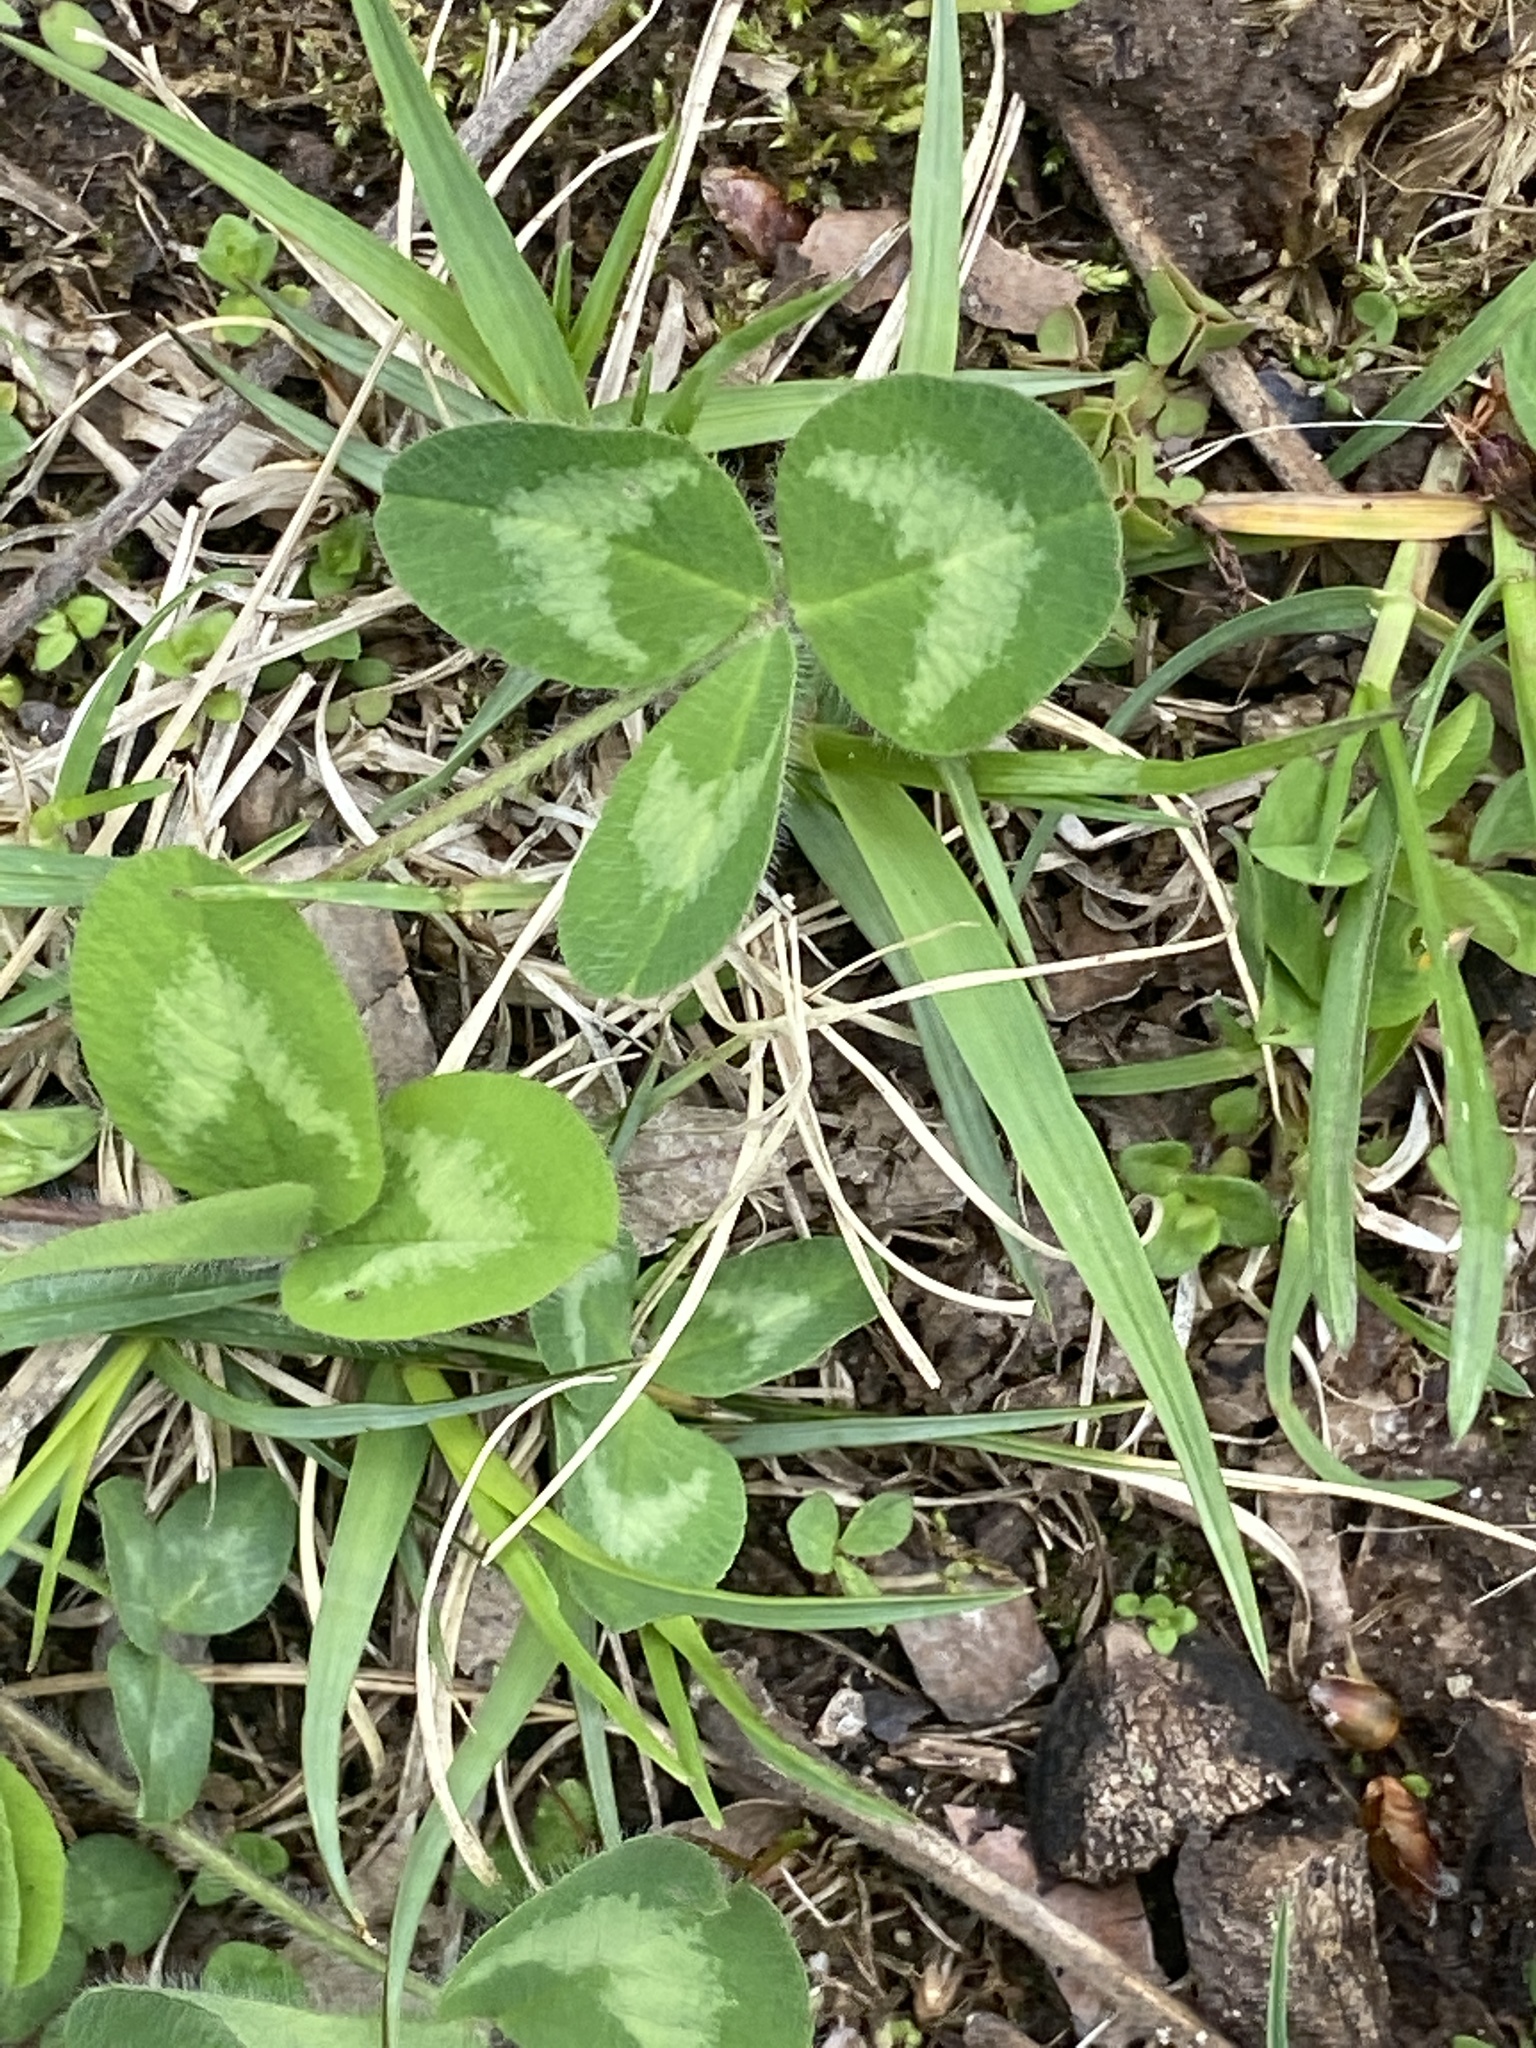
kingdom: Plantae
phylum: Tracheophyta
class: Magnoliopsida
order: Fabales
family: Fabaceae
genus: Trifolium
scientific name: Trifolium pratense
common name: Red clover
